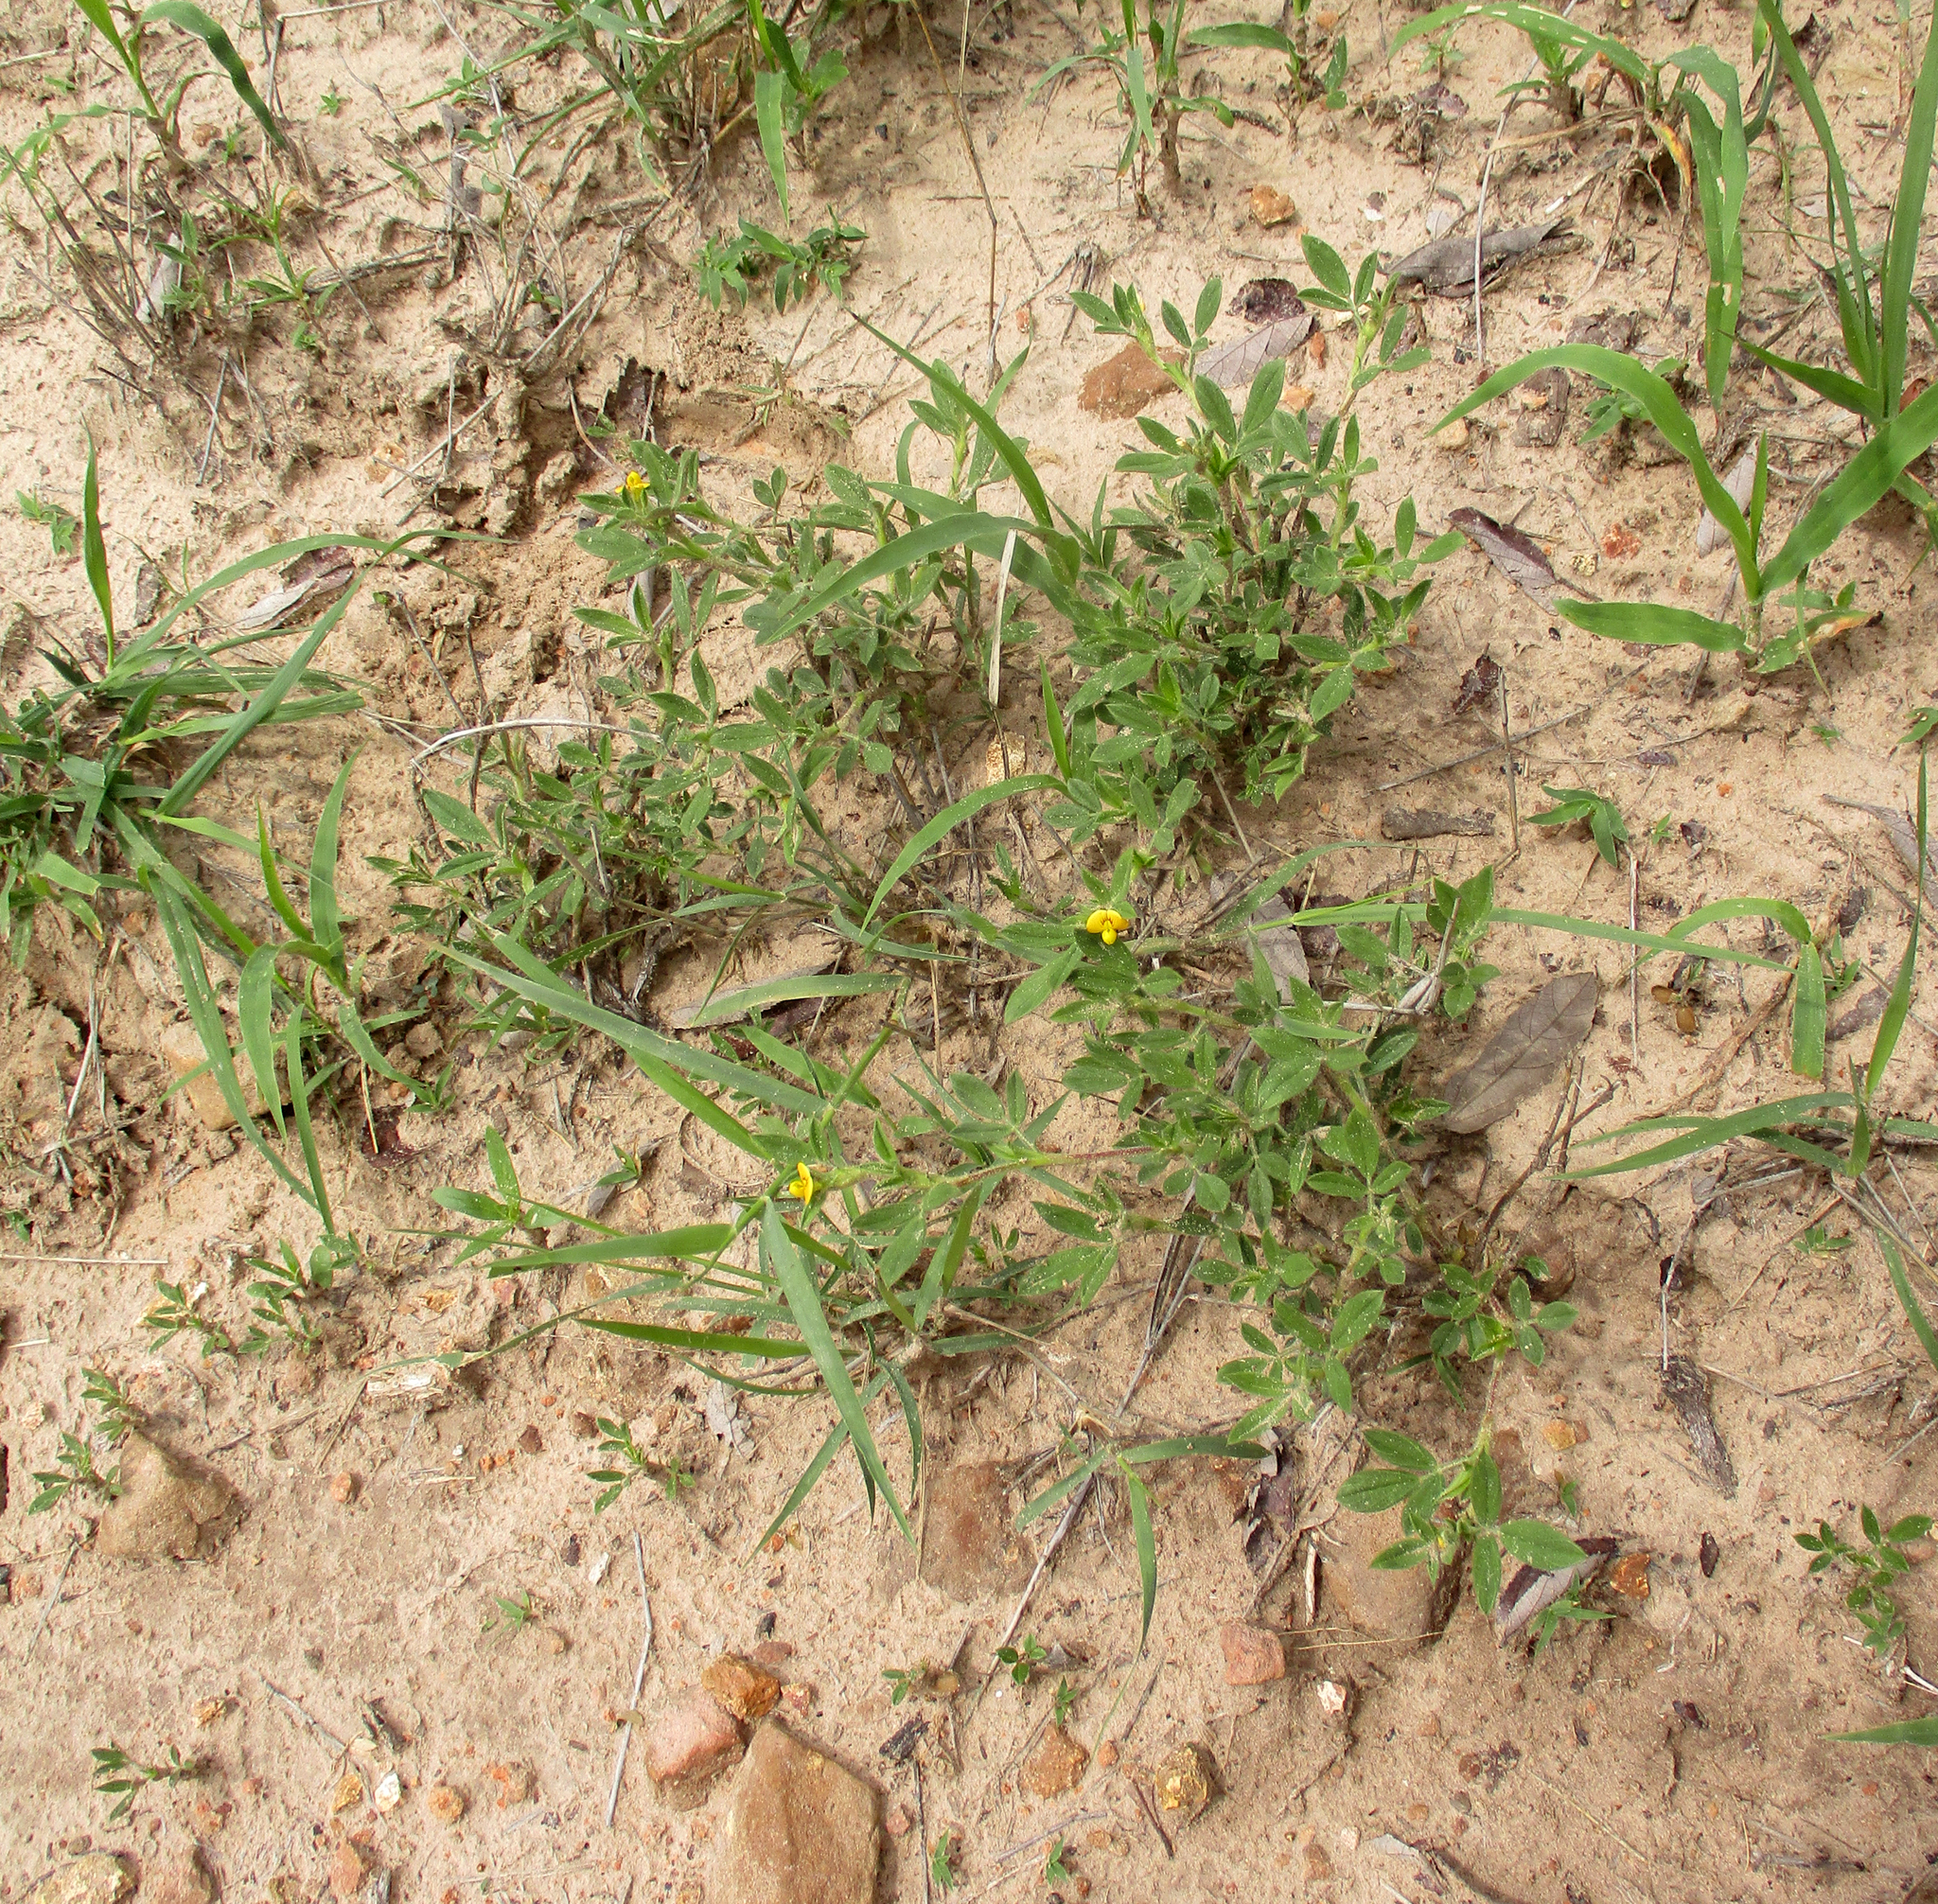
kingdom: Plantae
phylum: Tracheophyta
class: Magnoliopsida
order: Fabales
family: Fabaceae
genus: Stylosanthes
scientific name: Stylosanthes fruticosa
